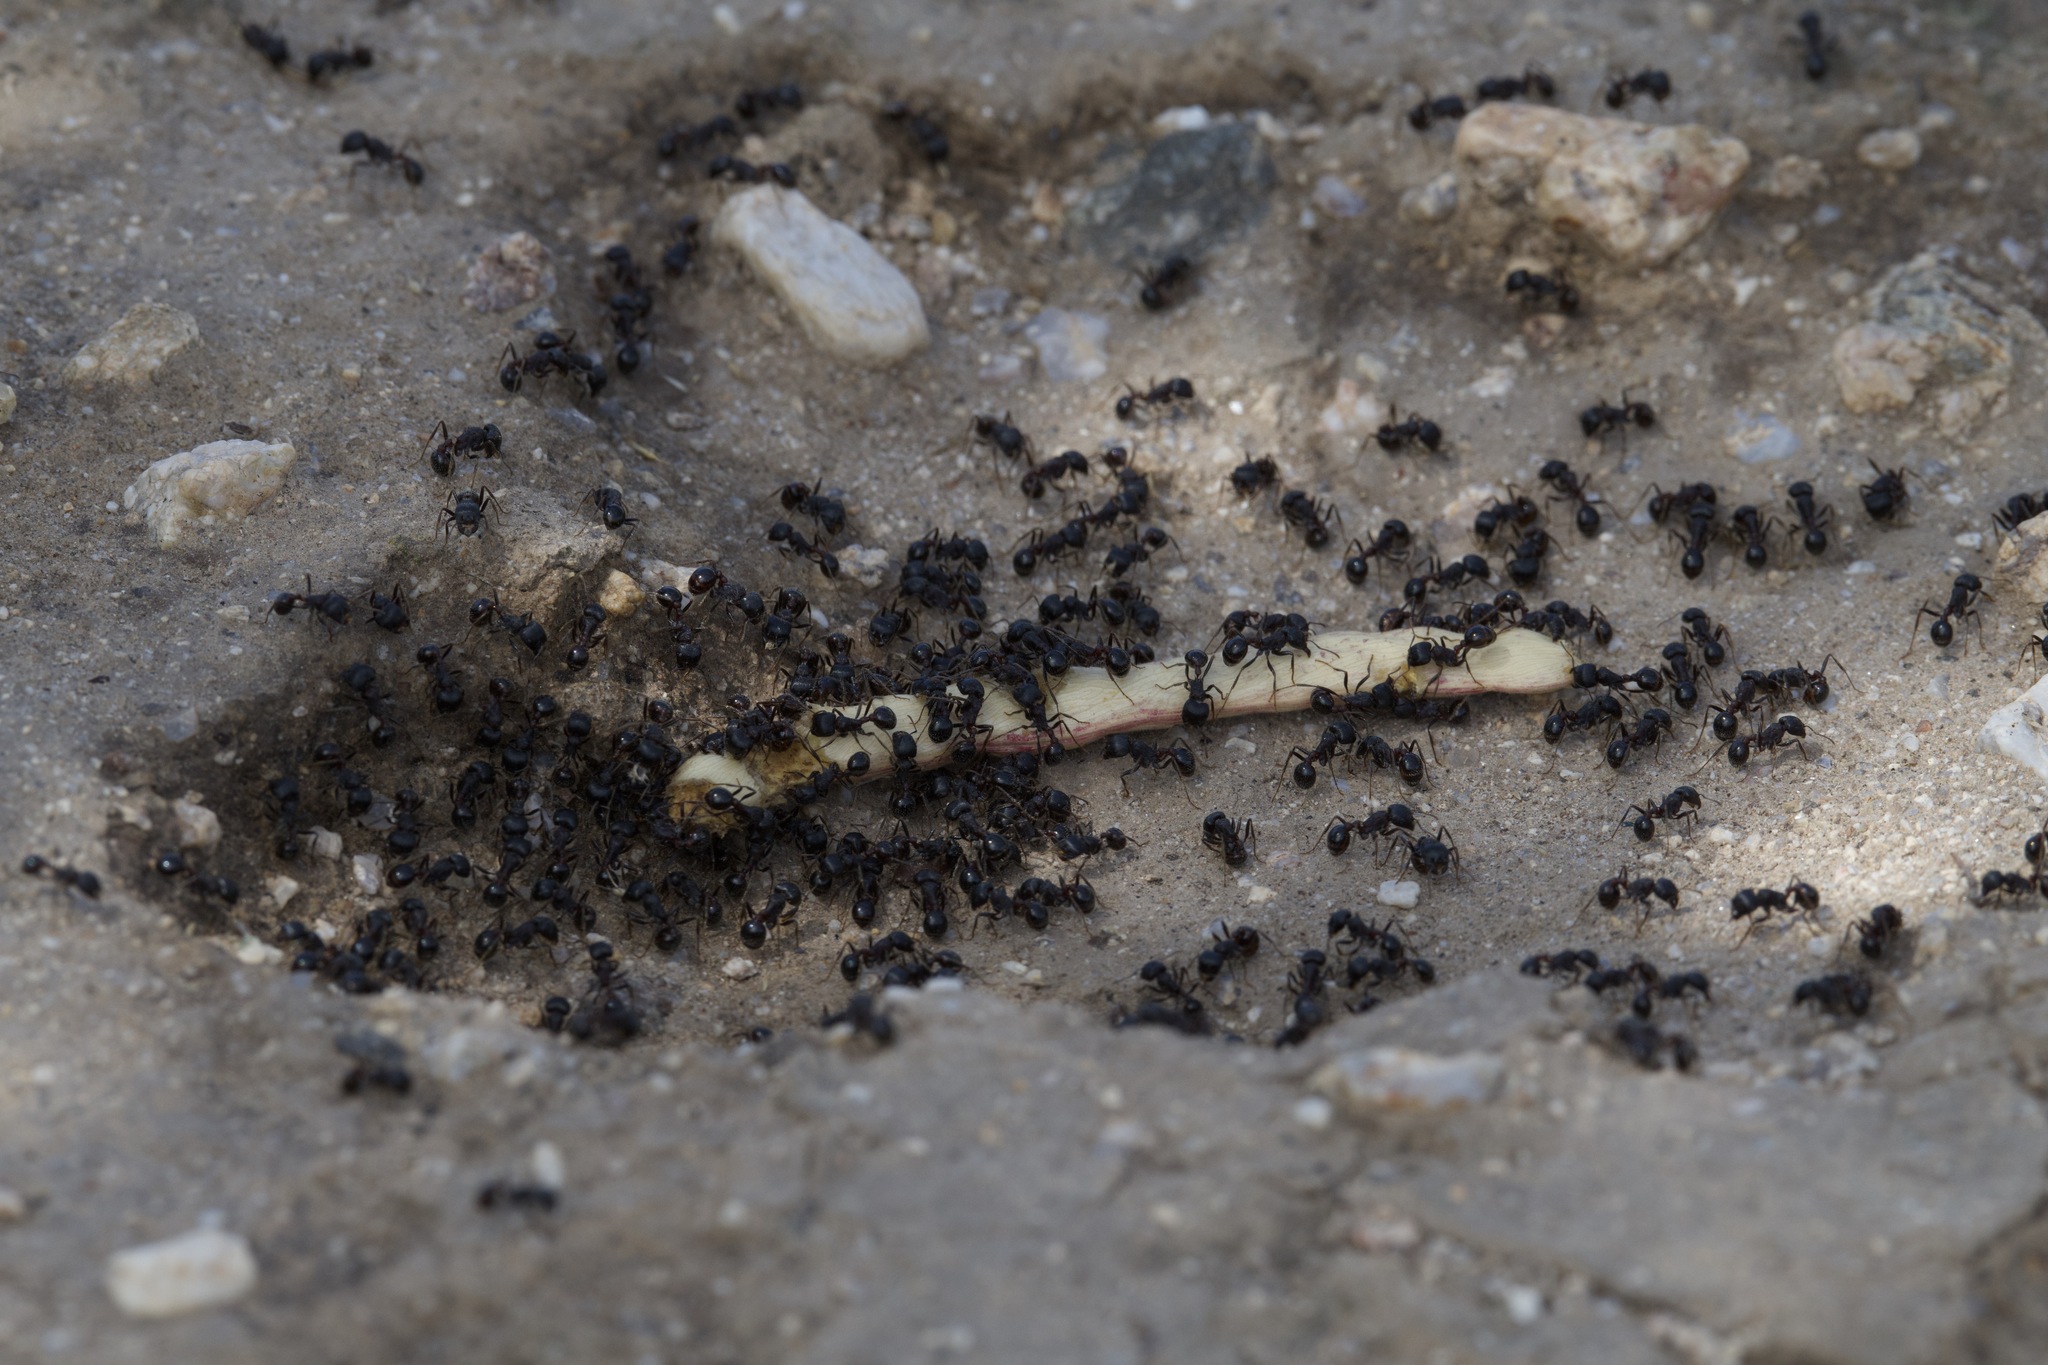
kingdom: Animalia
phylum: Arthropoda
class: Insecta
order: Hymenoptera
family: Formicidae
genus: Pogonomyrmex
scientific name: Pogonomyrmex rugosus
